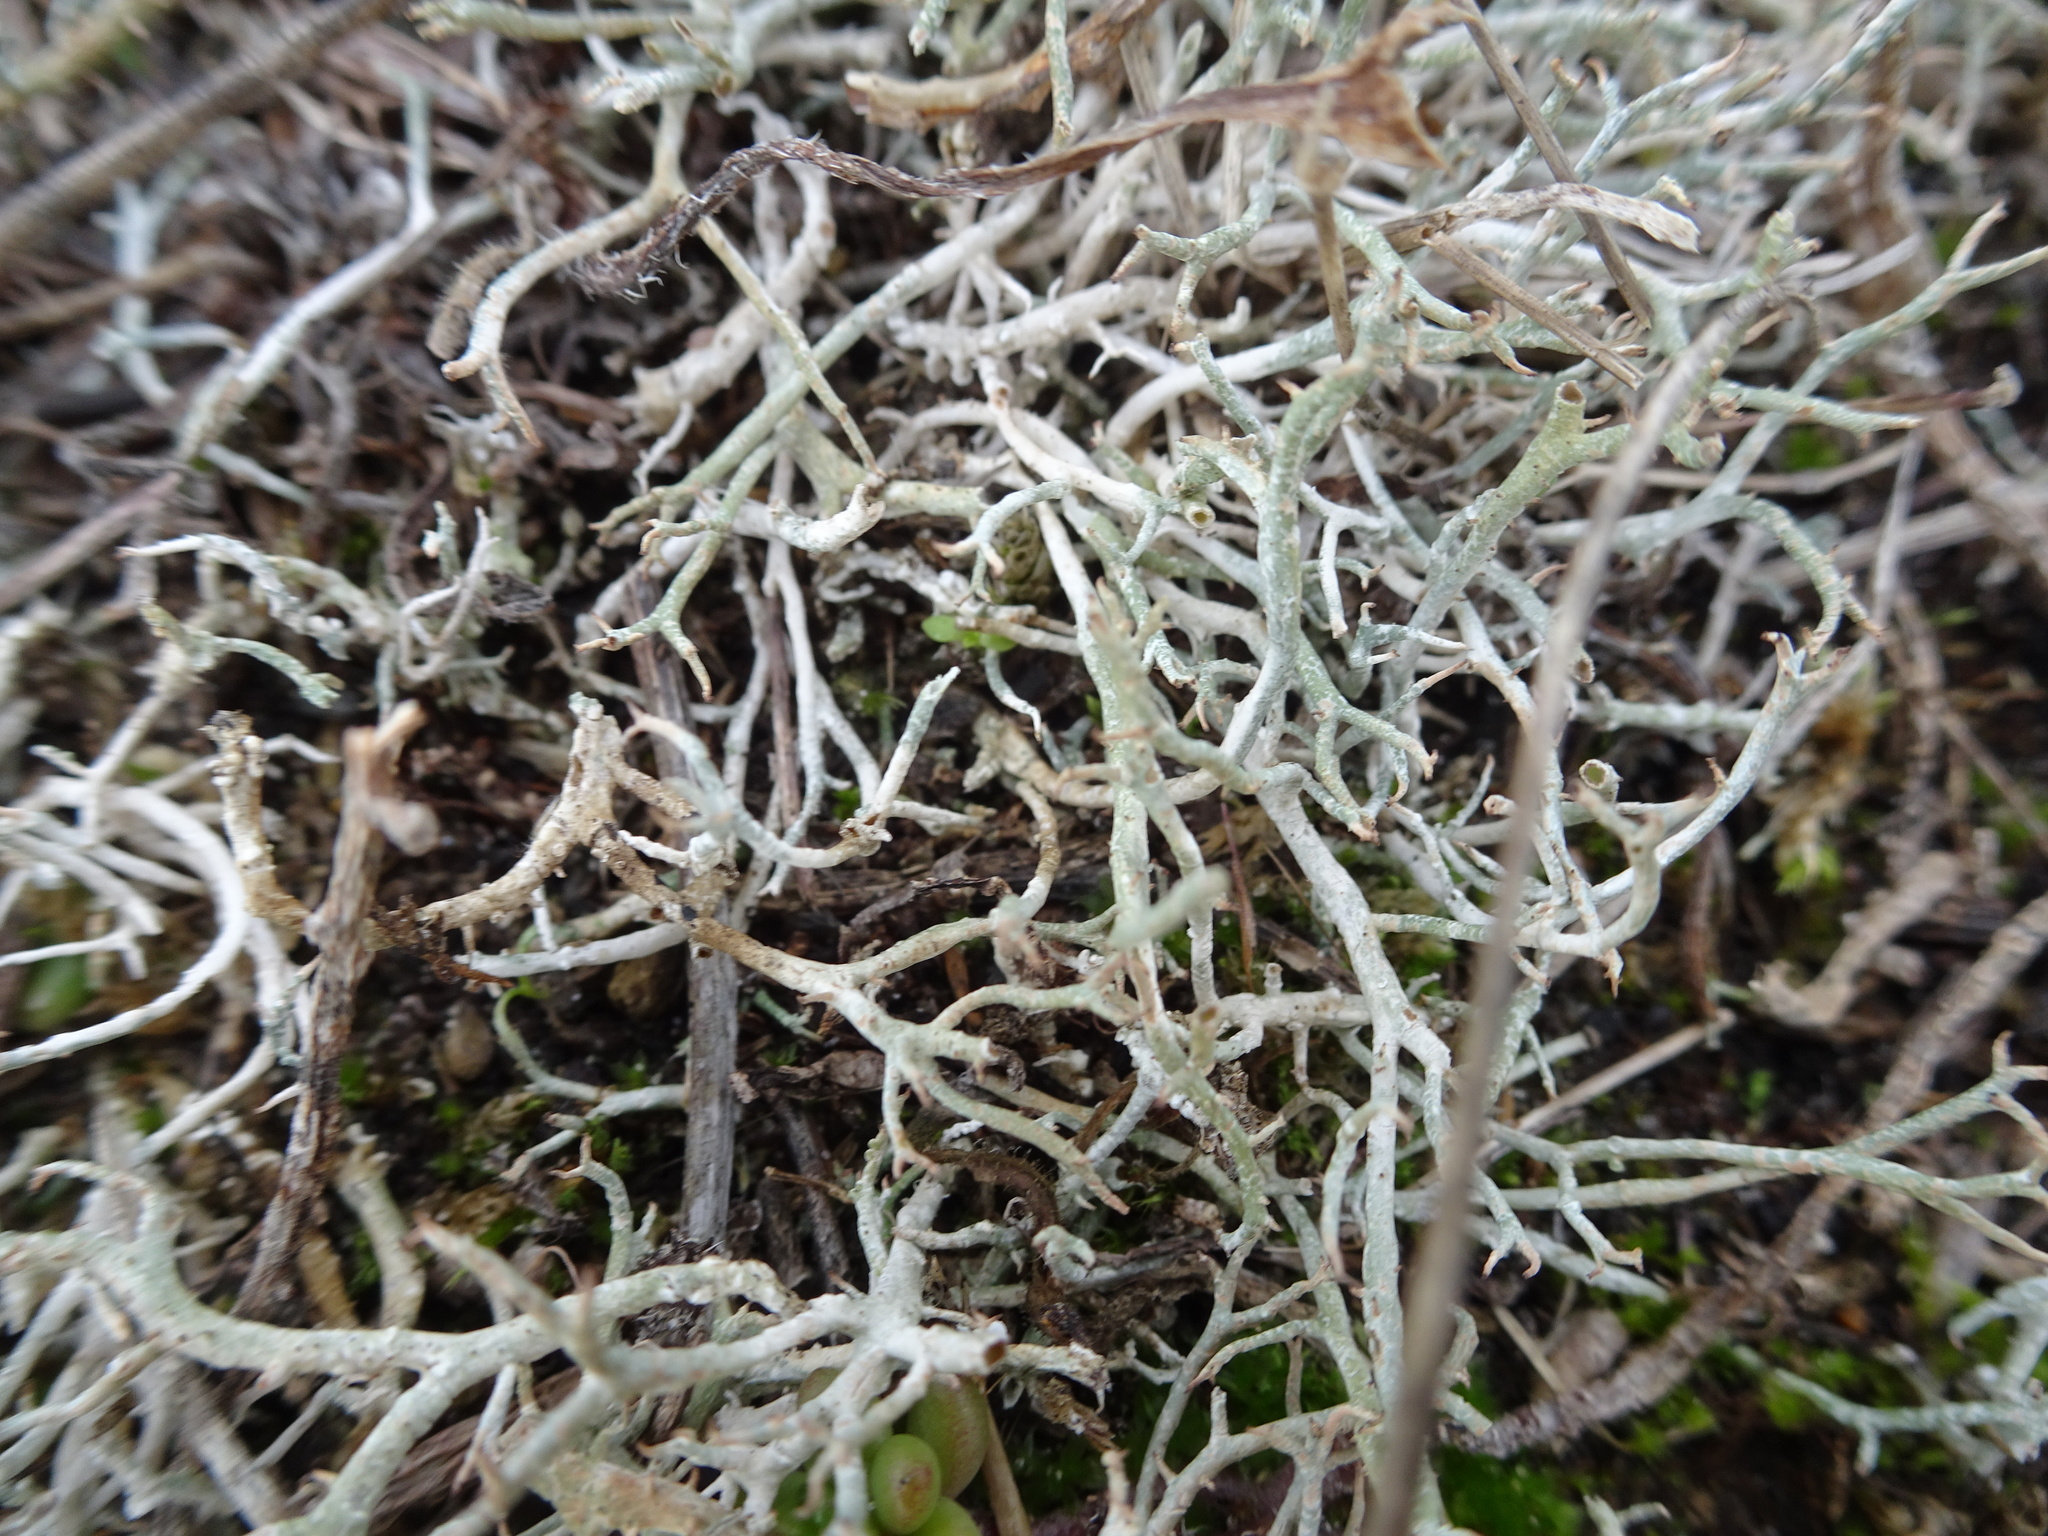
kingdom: Fungi
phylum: Ascomycota
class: Lecanoromycetes
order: Lecanorales
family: Cladoniaceae
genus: Cladonia
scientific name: Cladonia furcata
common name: Many-forked cladonia
